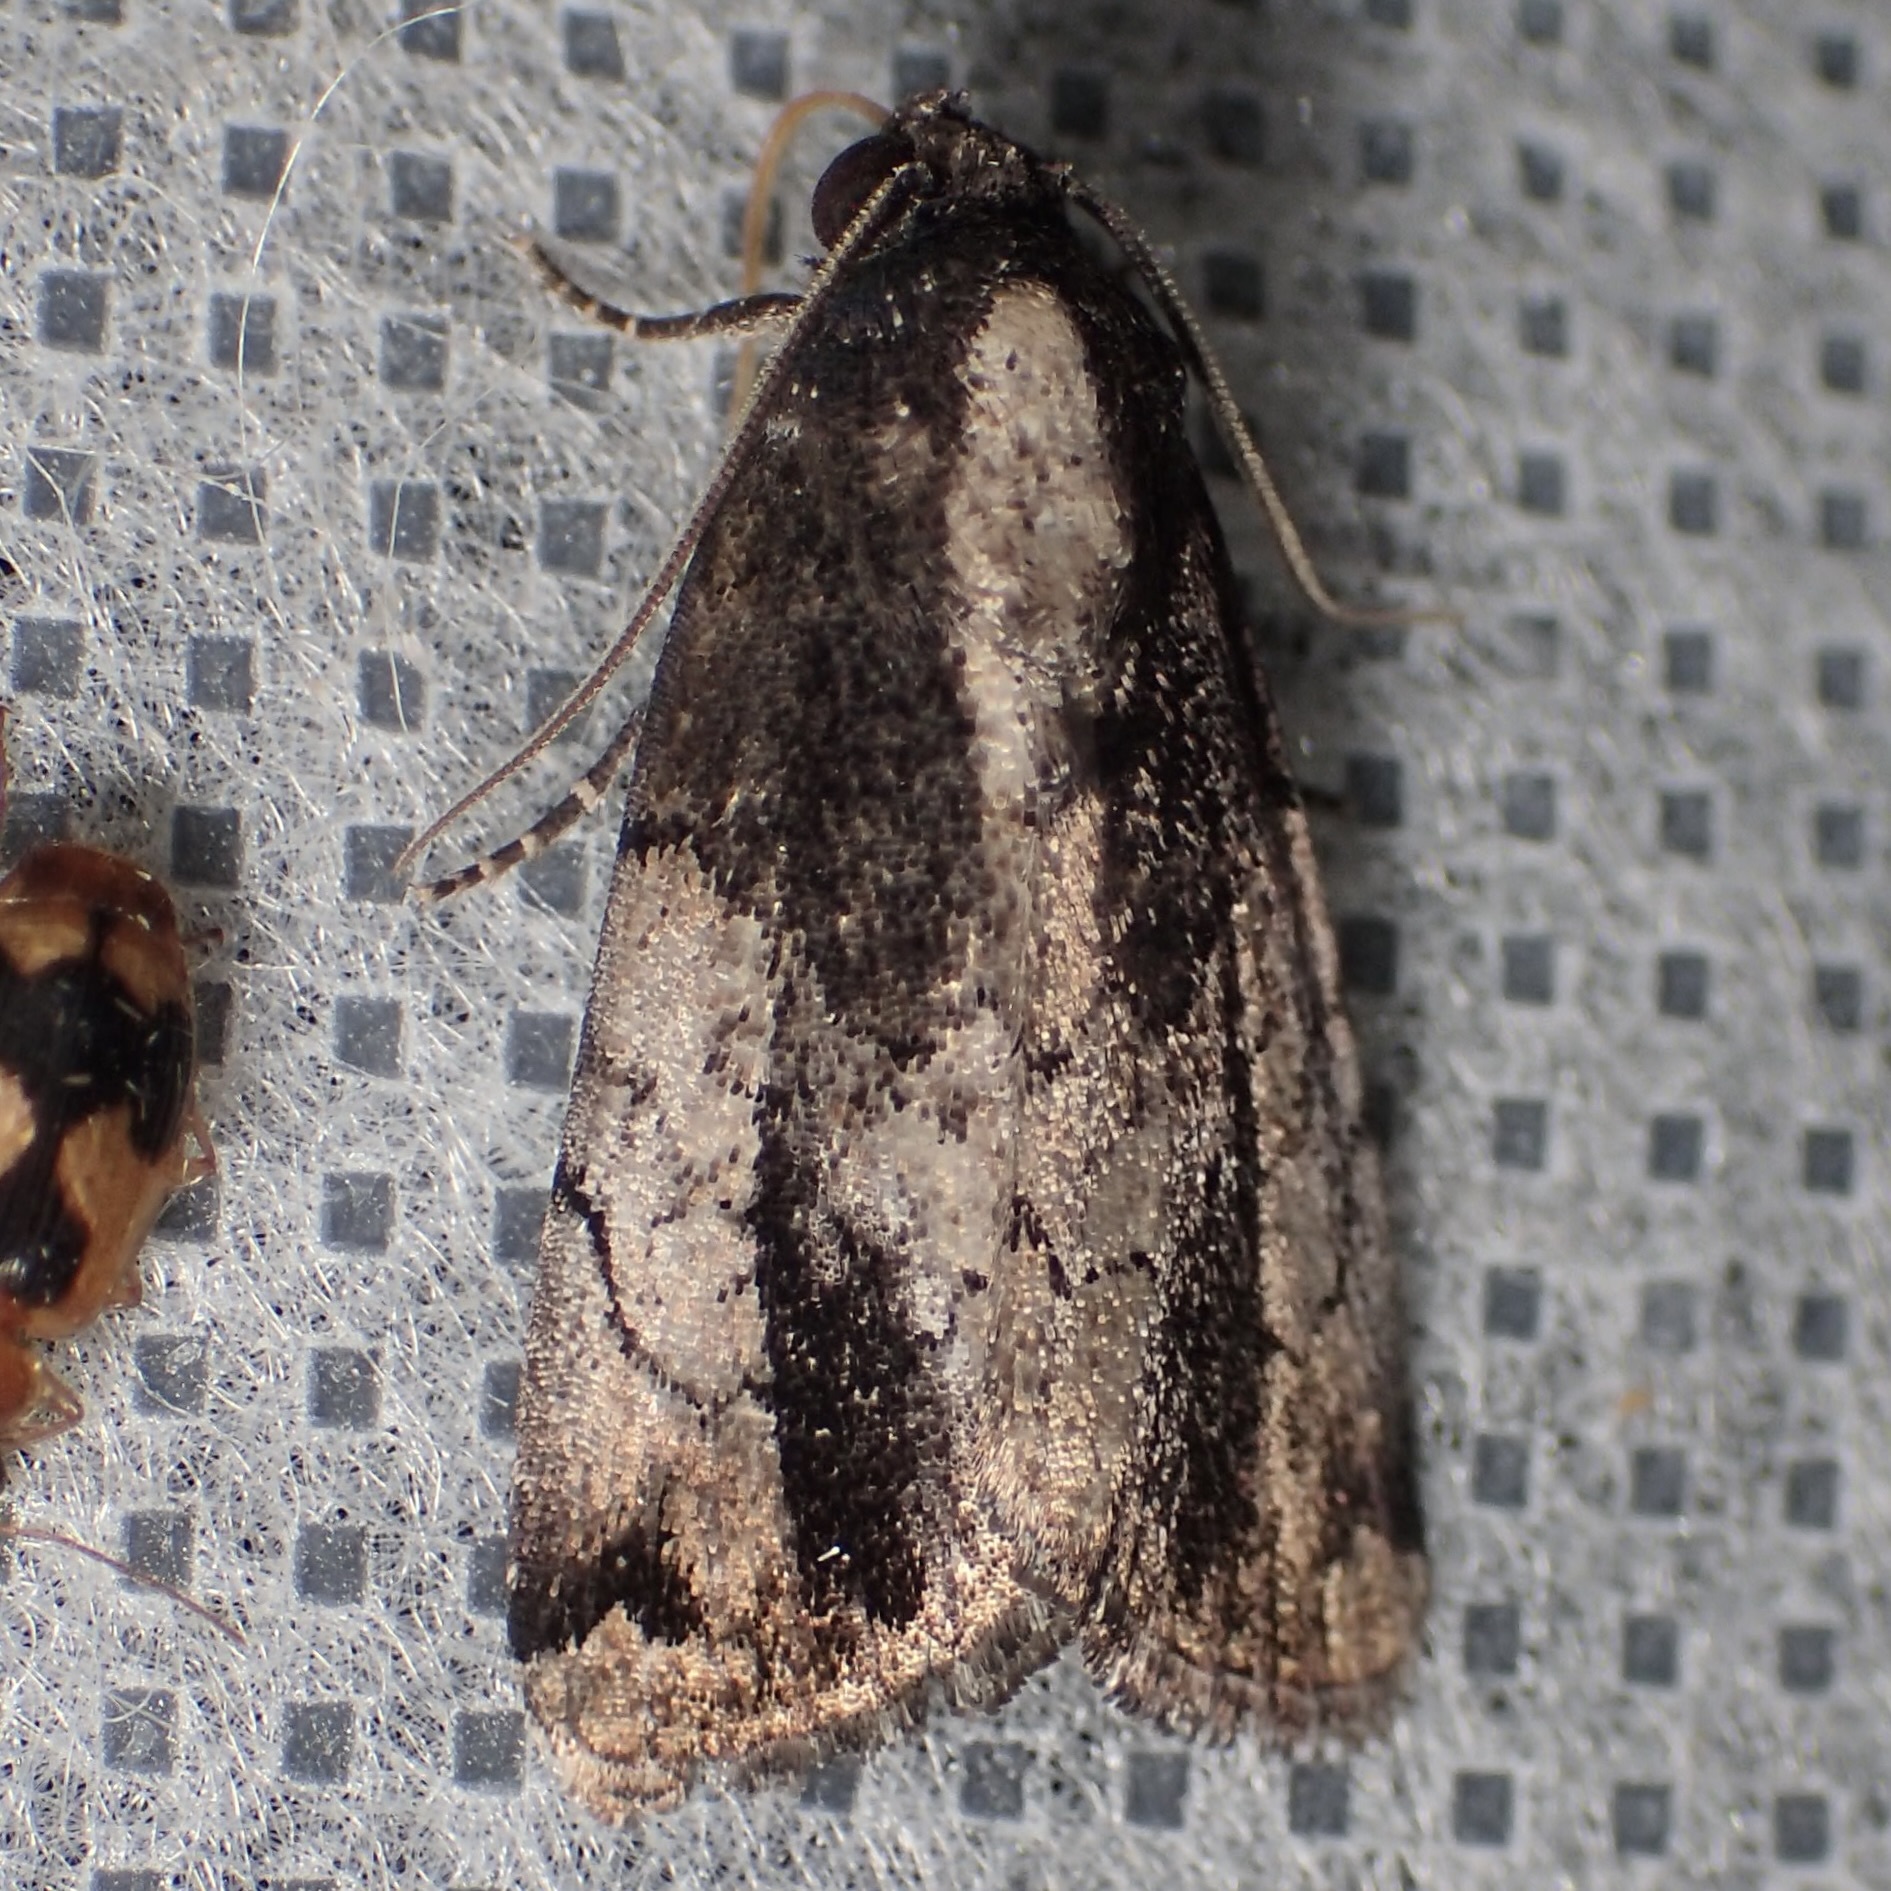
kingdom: Animalia
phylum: Arthropoda
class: Insecta
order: Lepidoptera
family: Noctuidae
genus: Bryolymnia
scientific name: Bryolymnia anthracitaria
